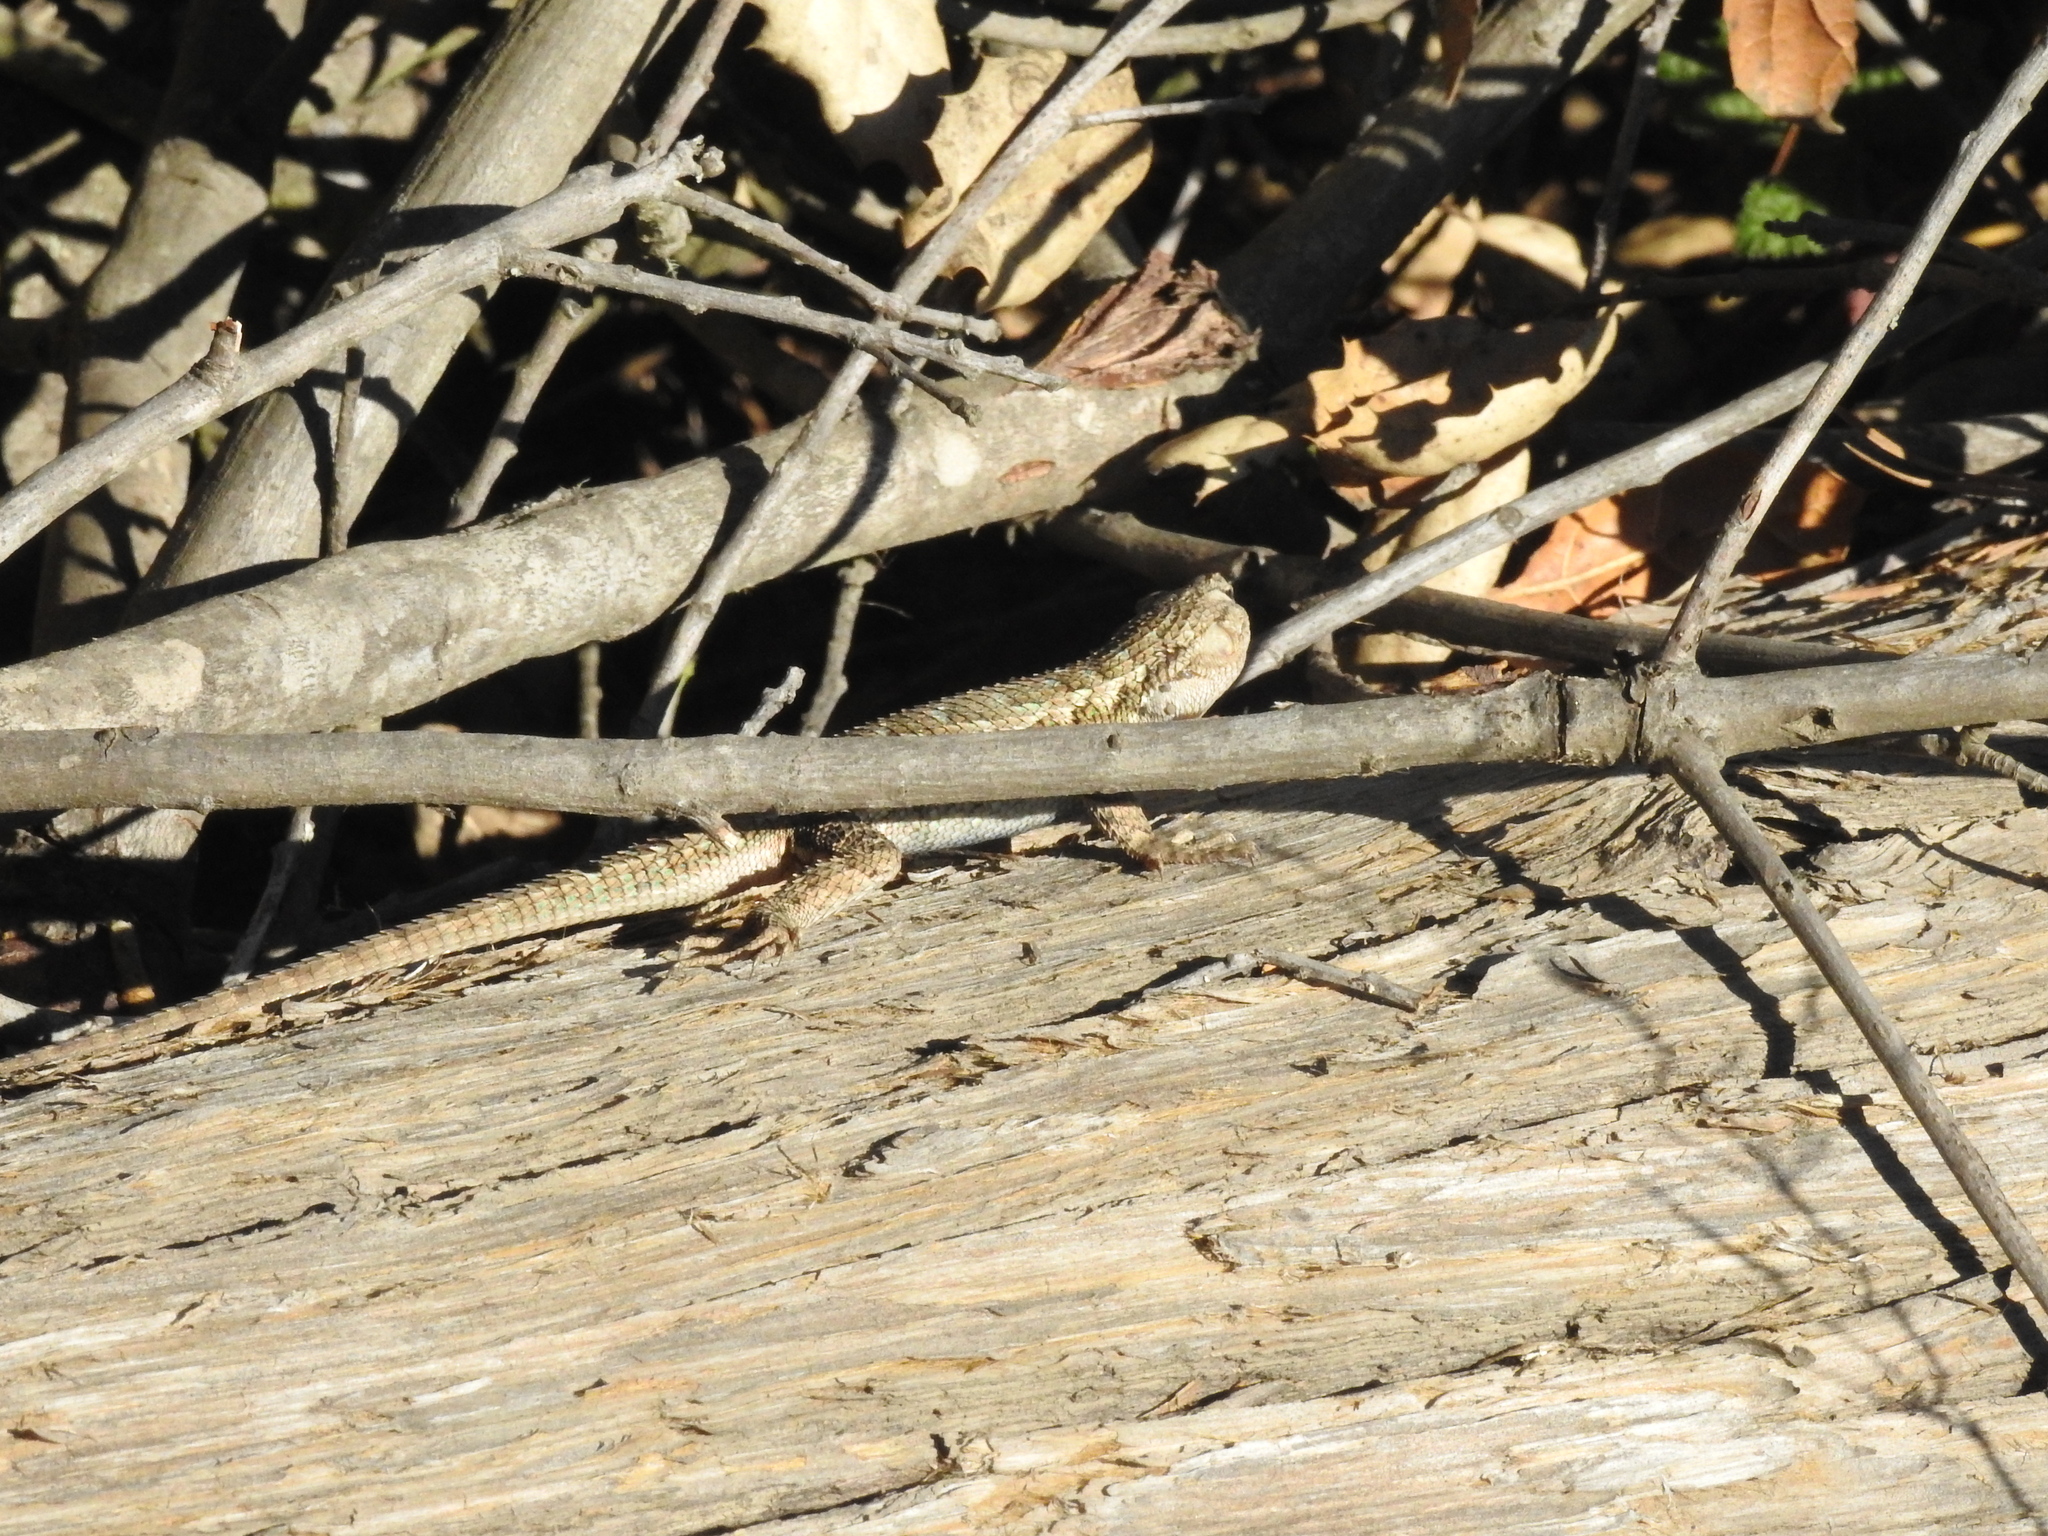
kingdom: Animalia
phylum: Chordata
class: Squamata
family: Phrynosomatidae
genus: Sceloporus
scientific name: Sceloporus occidentalis
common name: Western fence lizard
